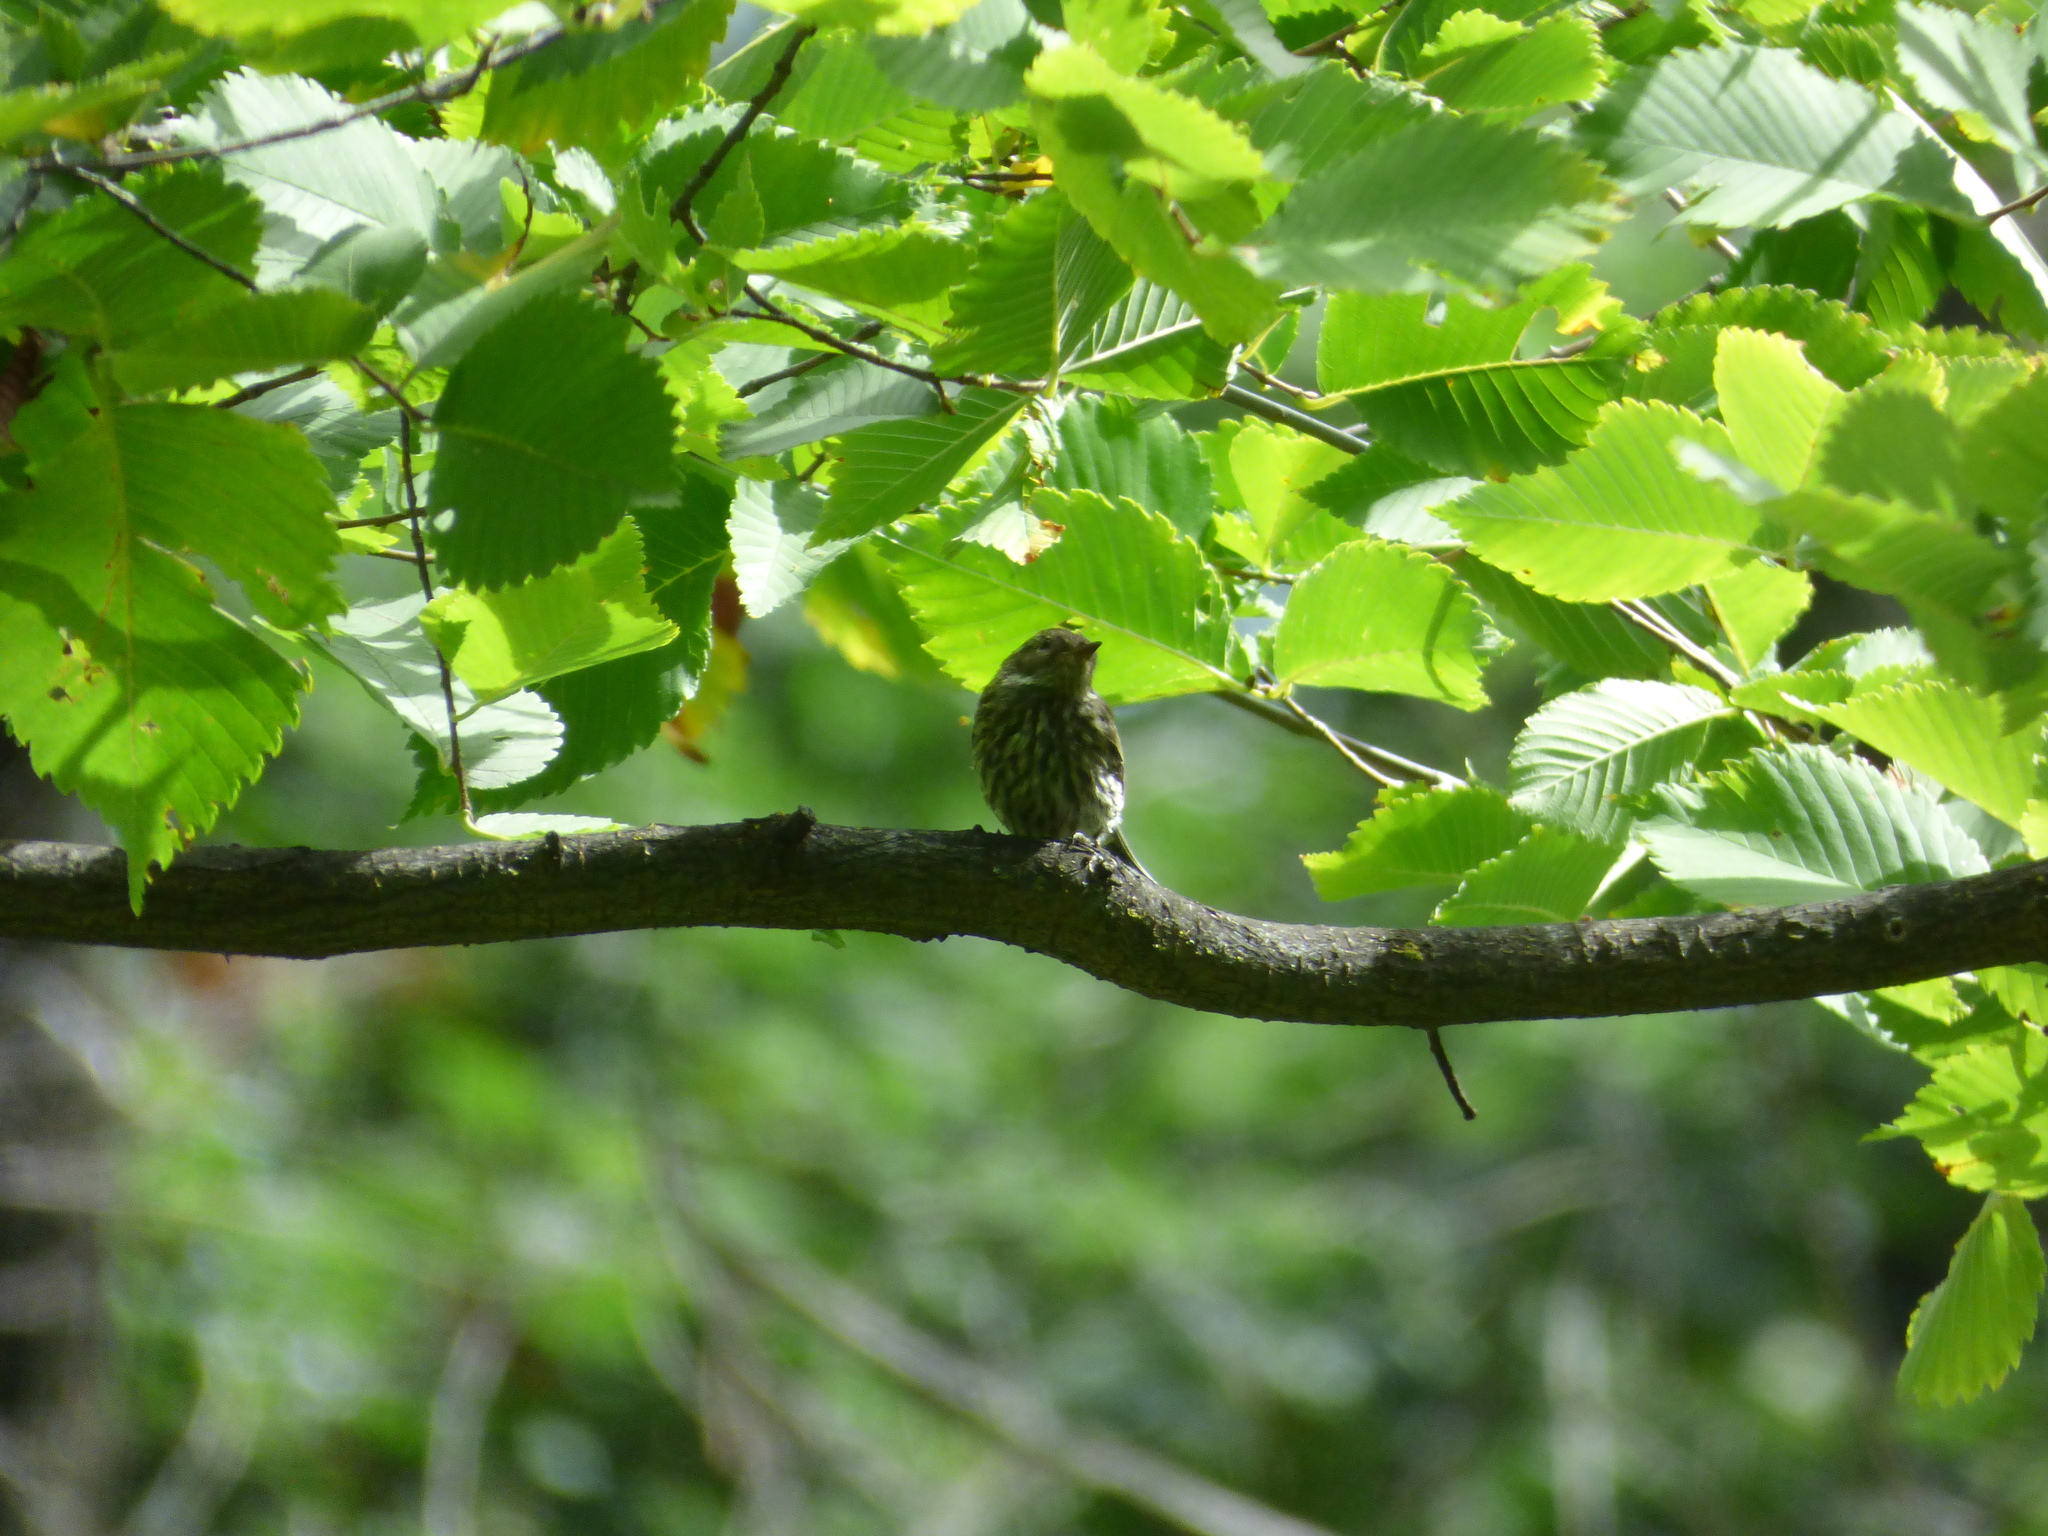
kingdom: Animalia
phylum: Chordata
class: Aves
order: Passeriformes
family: Parulidae
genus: Setophaga
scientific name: Setophaga tigrina
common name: Cape may warbler
